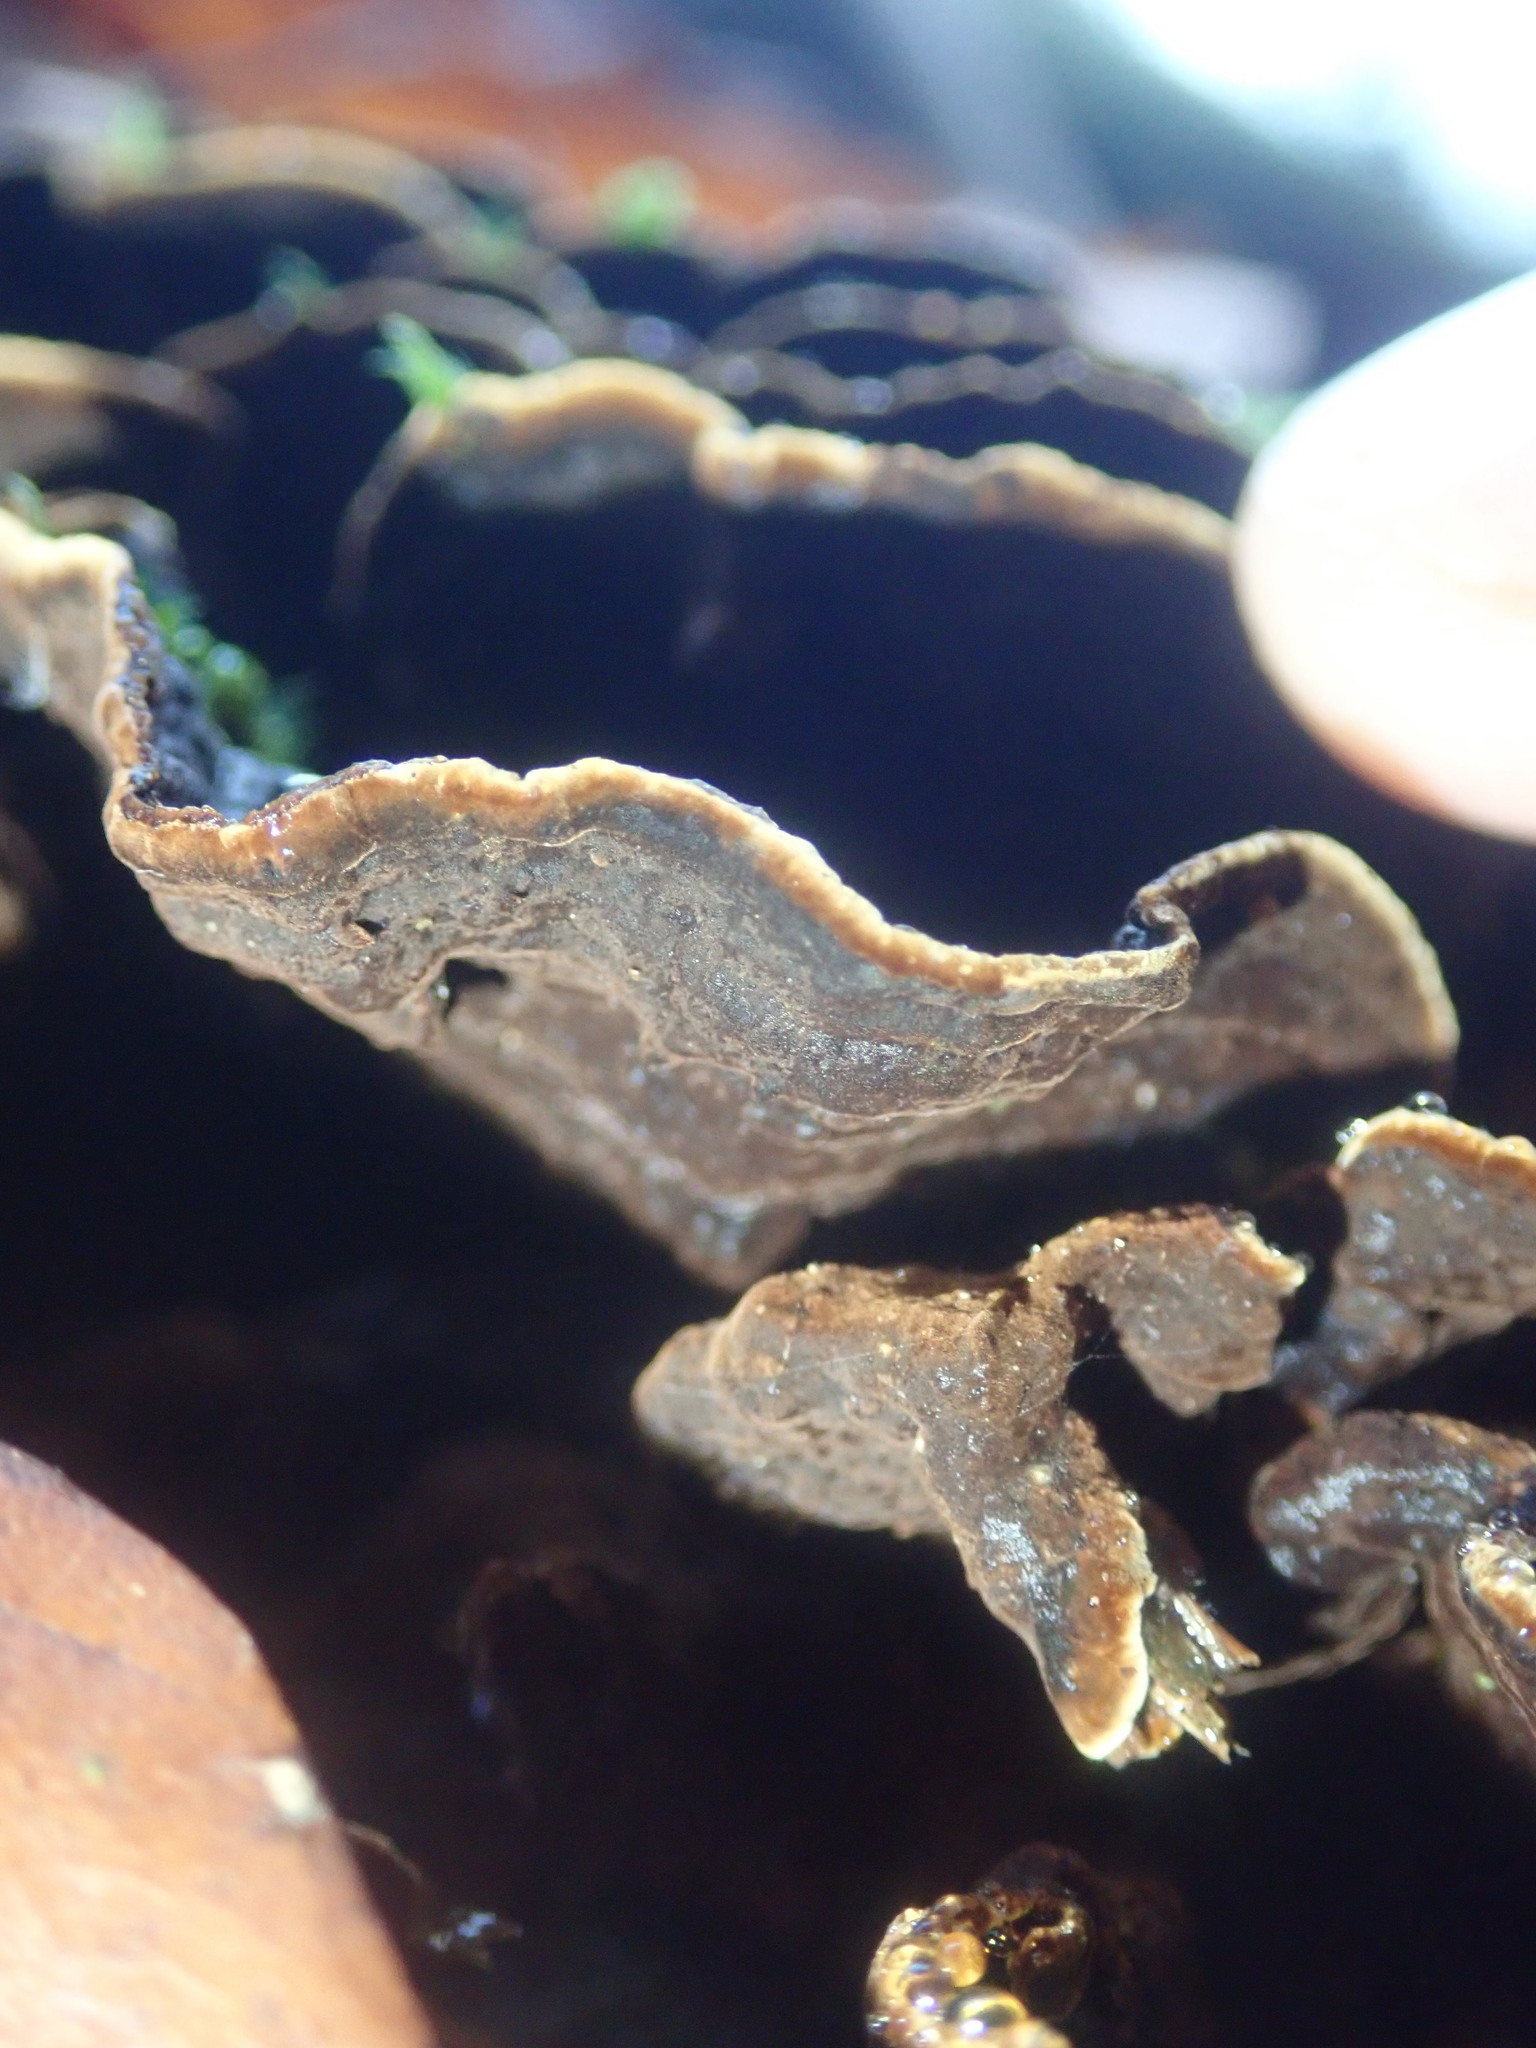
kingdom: Fungi
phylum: Basidiomycota
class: Agaricomycetes
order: Hymenochaetales
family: Hymenochaetaceae
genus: Hymenochaete
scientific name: Hymenochaete rubiginosa
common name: Oak curtain crust
